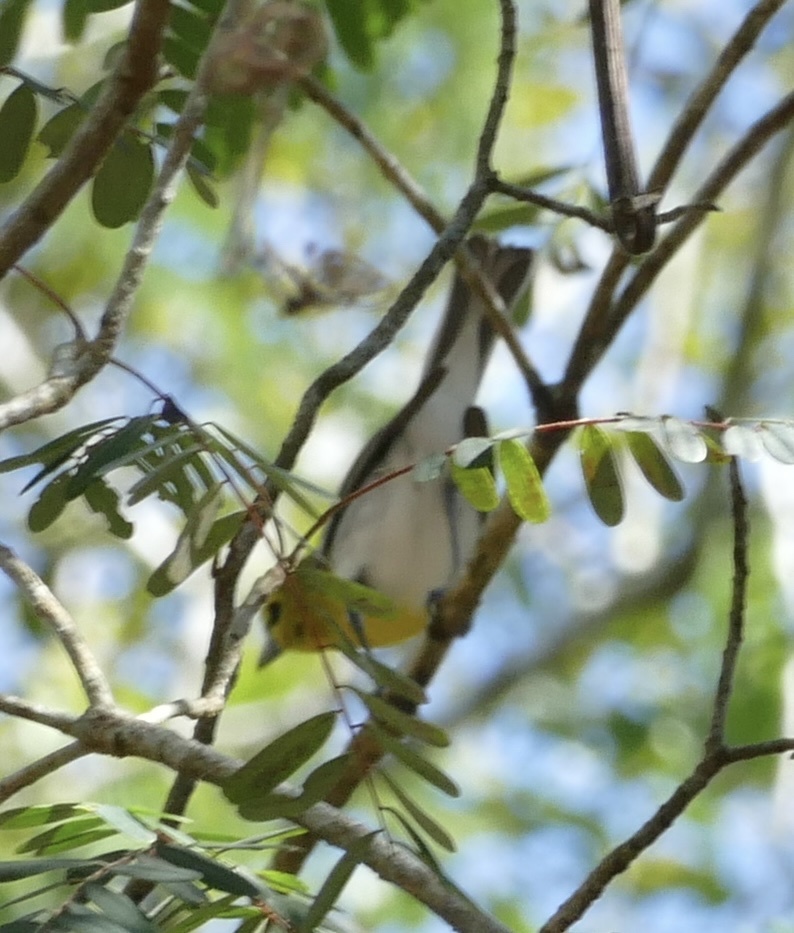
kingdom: Animalia
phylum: Chordata
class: Aves
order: Passeriformes
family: Vireonidae
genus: Vireo
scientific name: Vireo flavifrons
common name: Yellow-throated vireo
